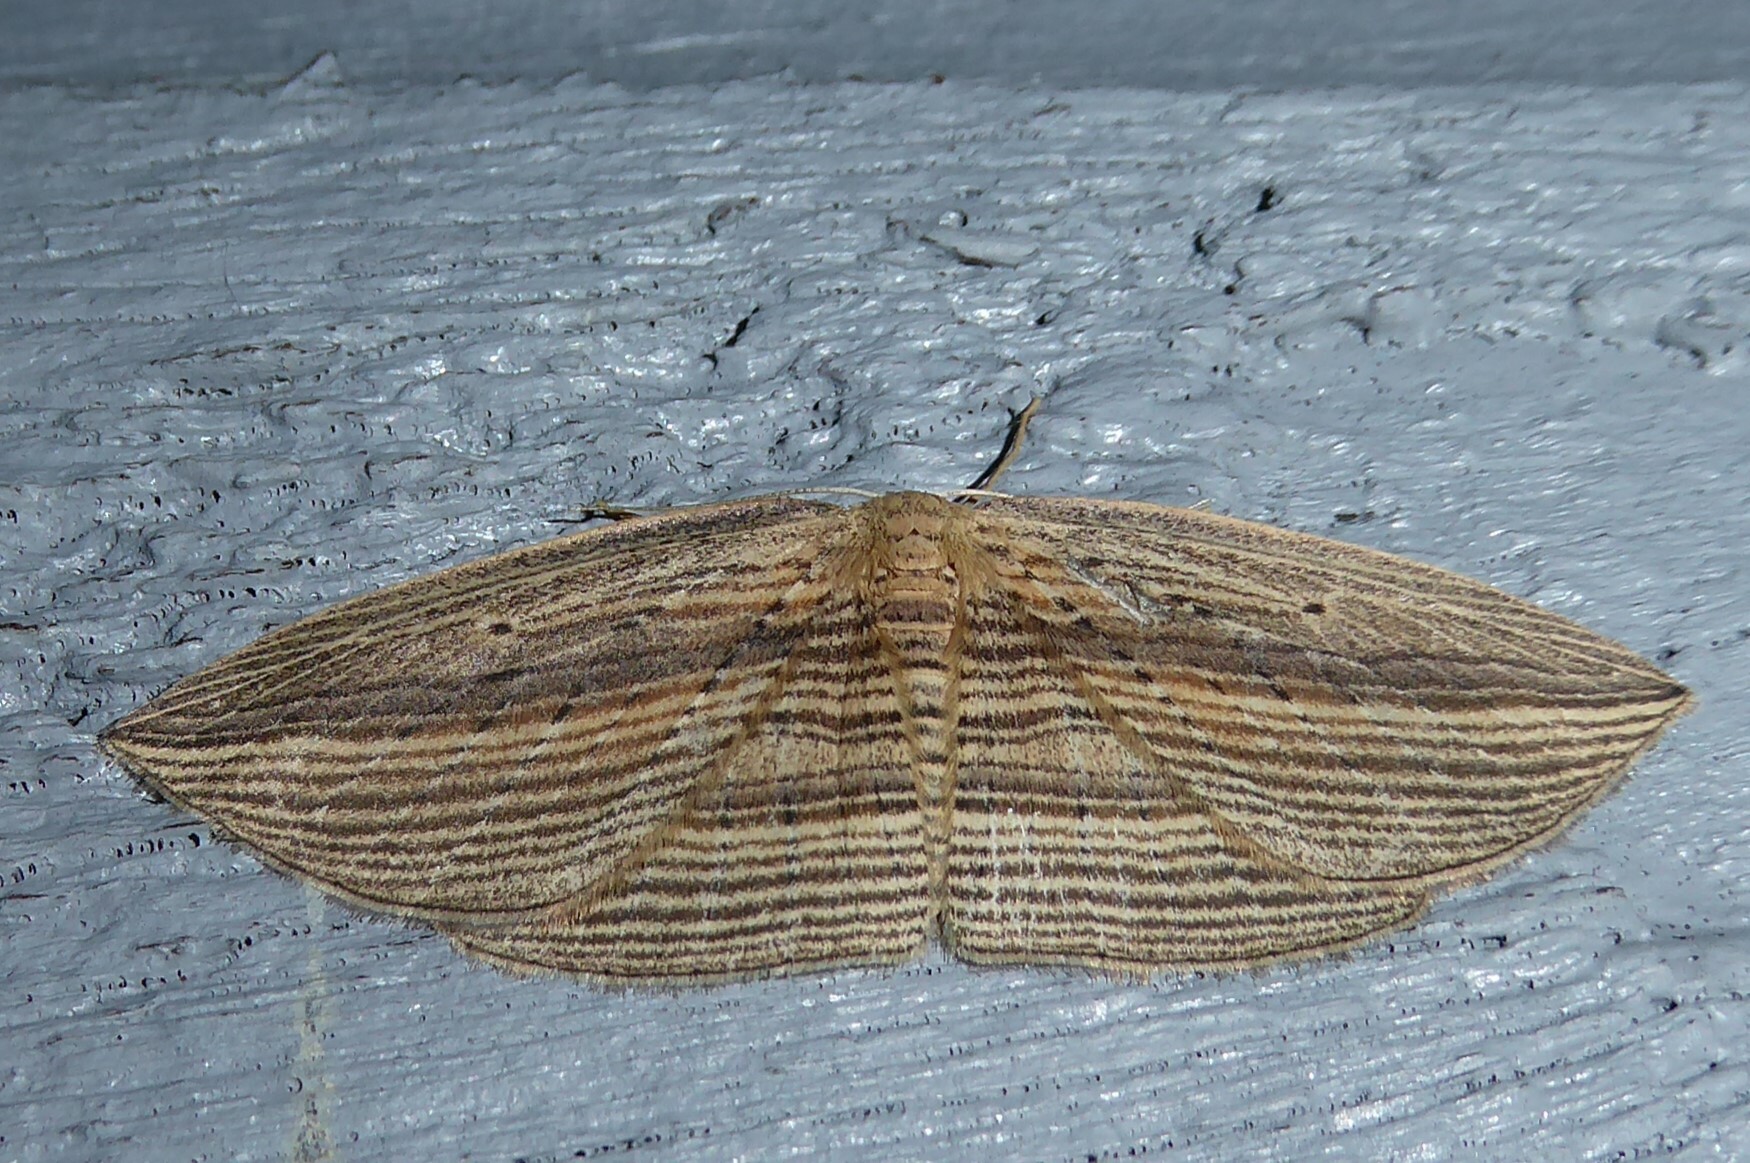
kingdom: Animalia
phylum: Arthropoda
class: Insecta
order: Lepidoptera
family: Geometridae
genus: Epiphryne
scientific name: Epiphryne verriculata
